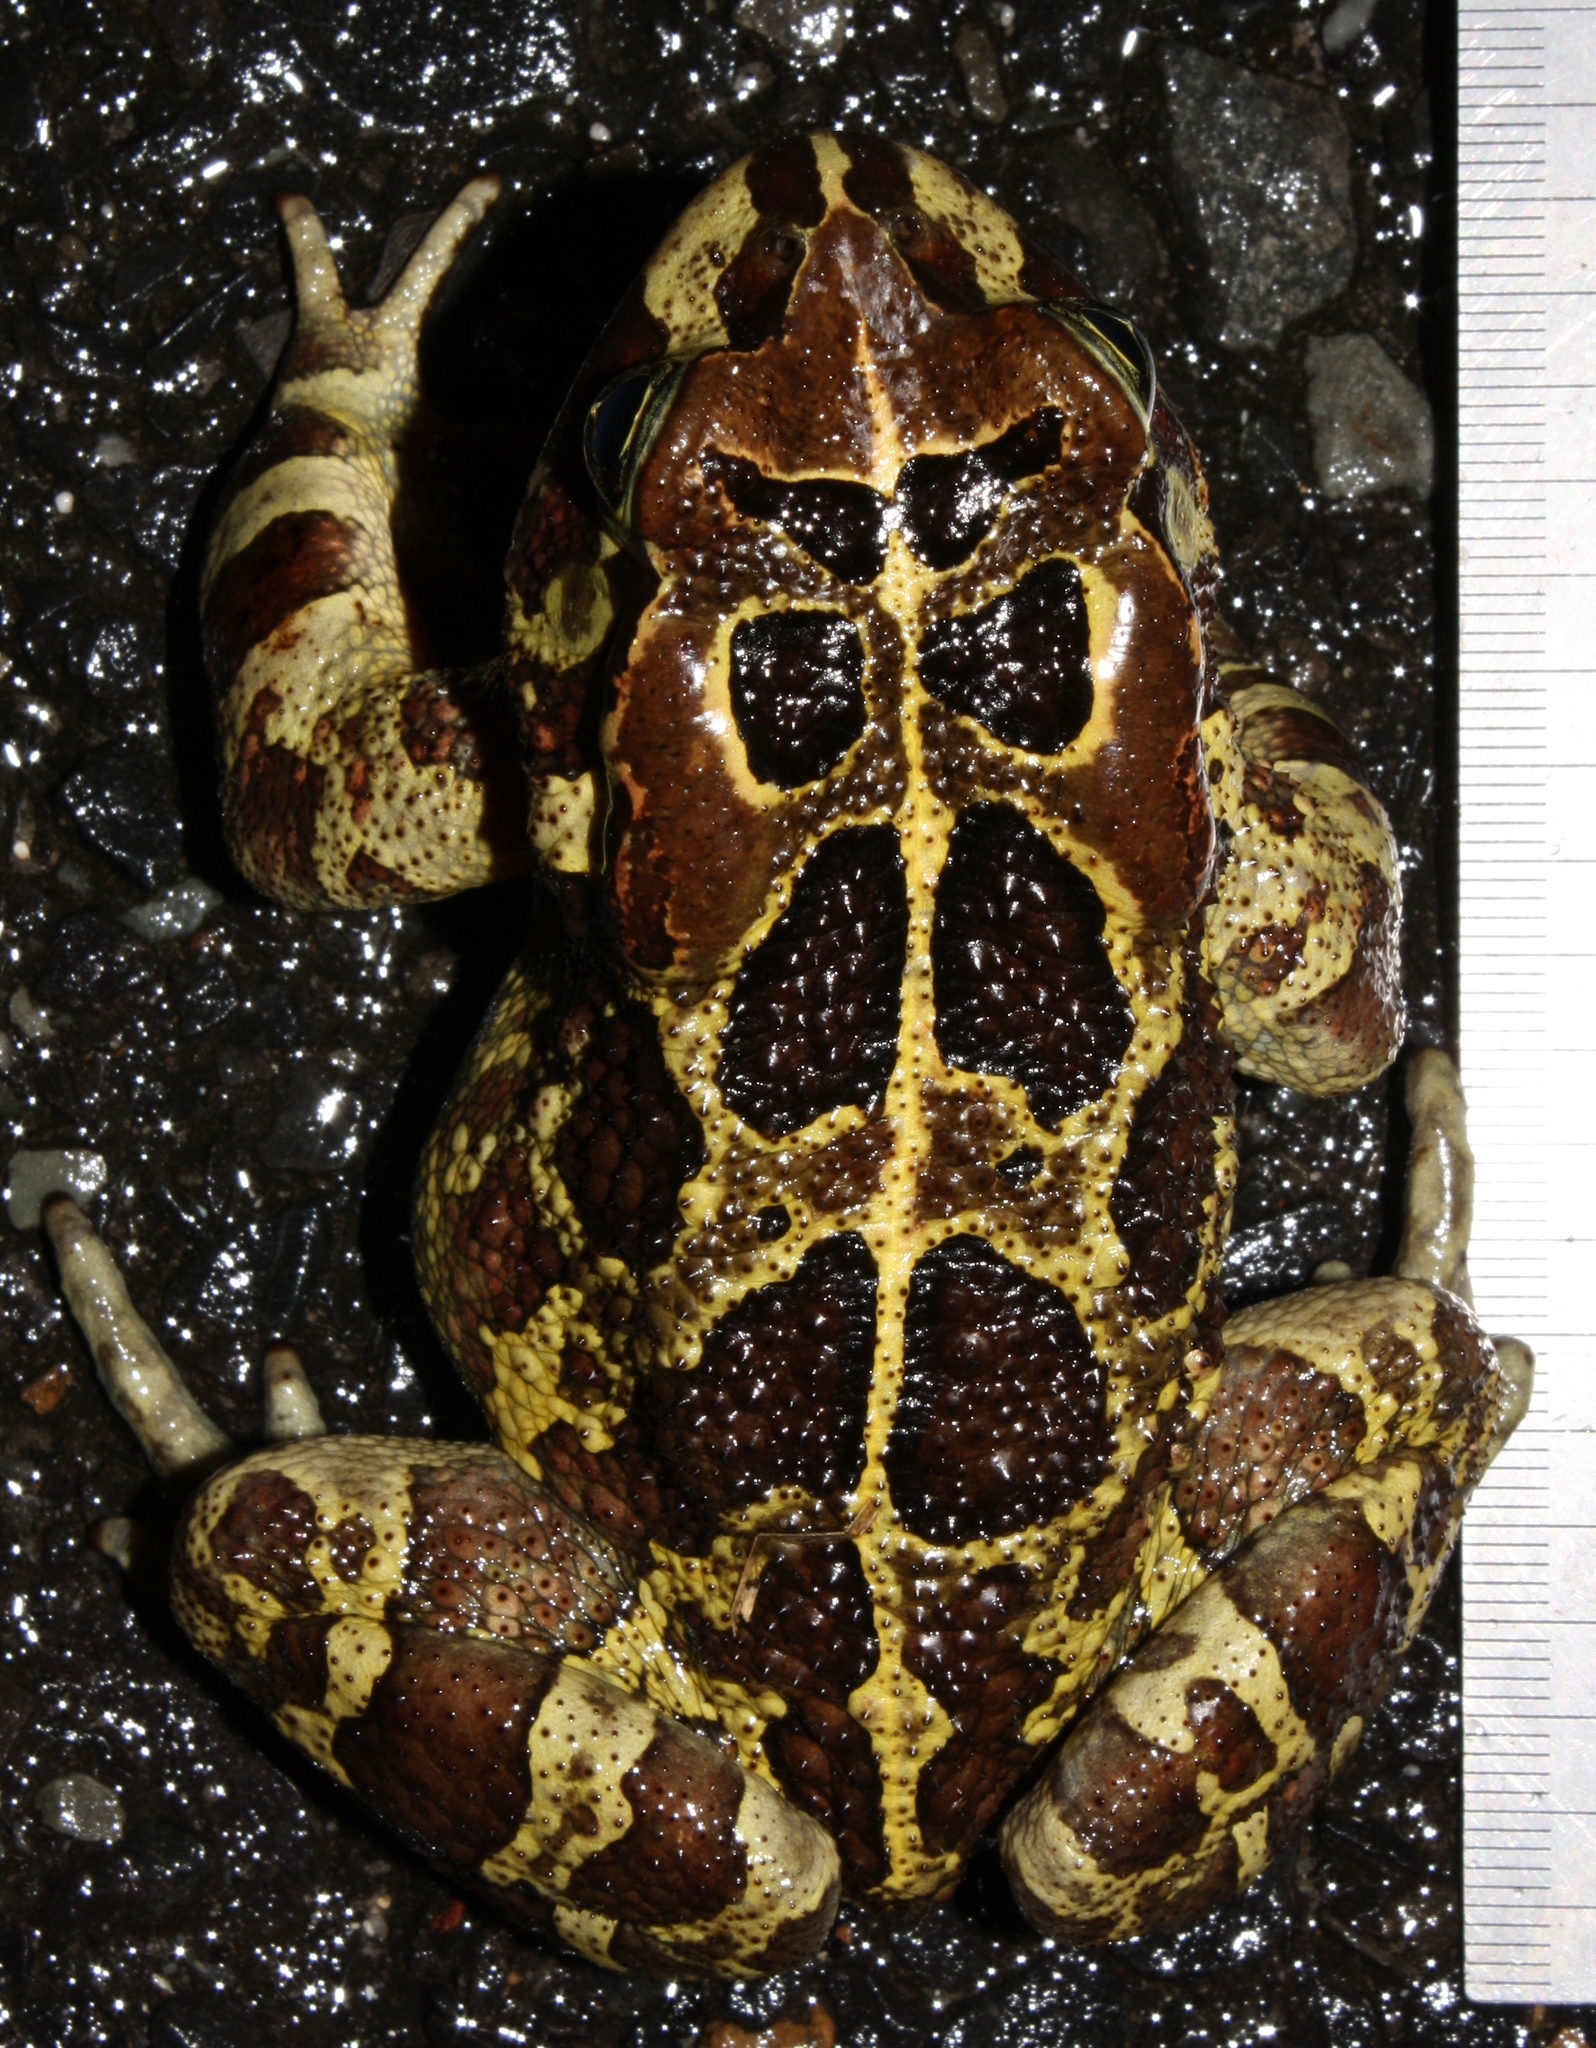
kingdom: Animalia
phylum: Chordata
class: Amphibia
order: Anura
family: Bufonidae
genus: Sclerophrys
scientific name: Sclerophrys pantherina
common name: Panther toad
